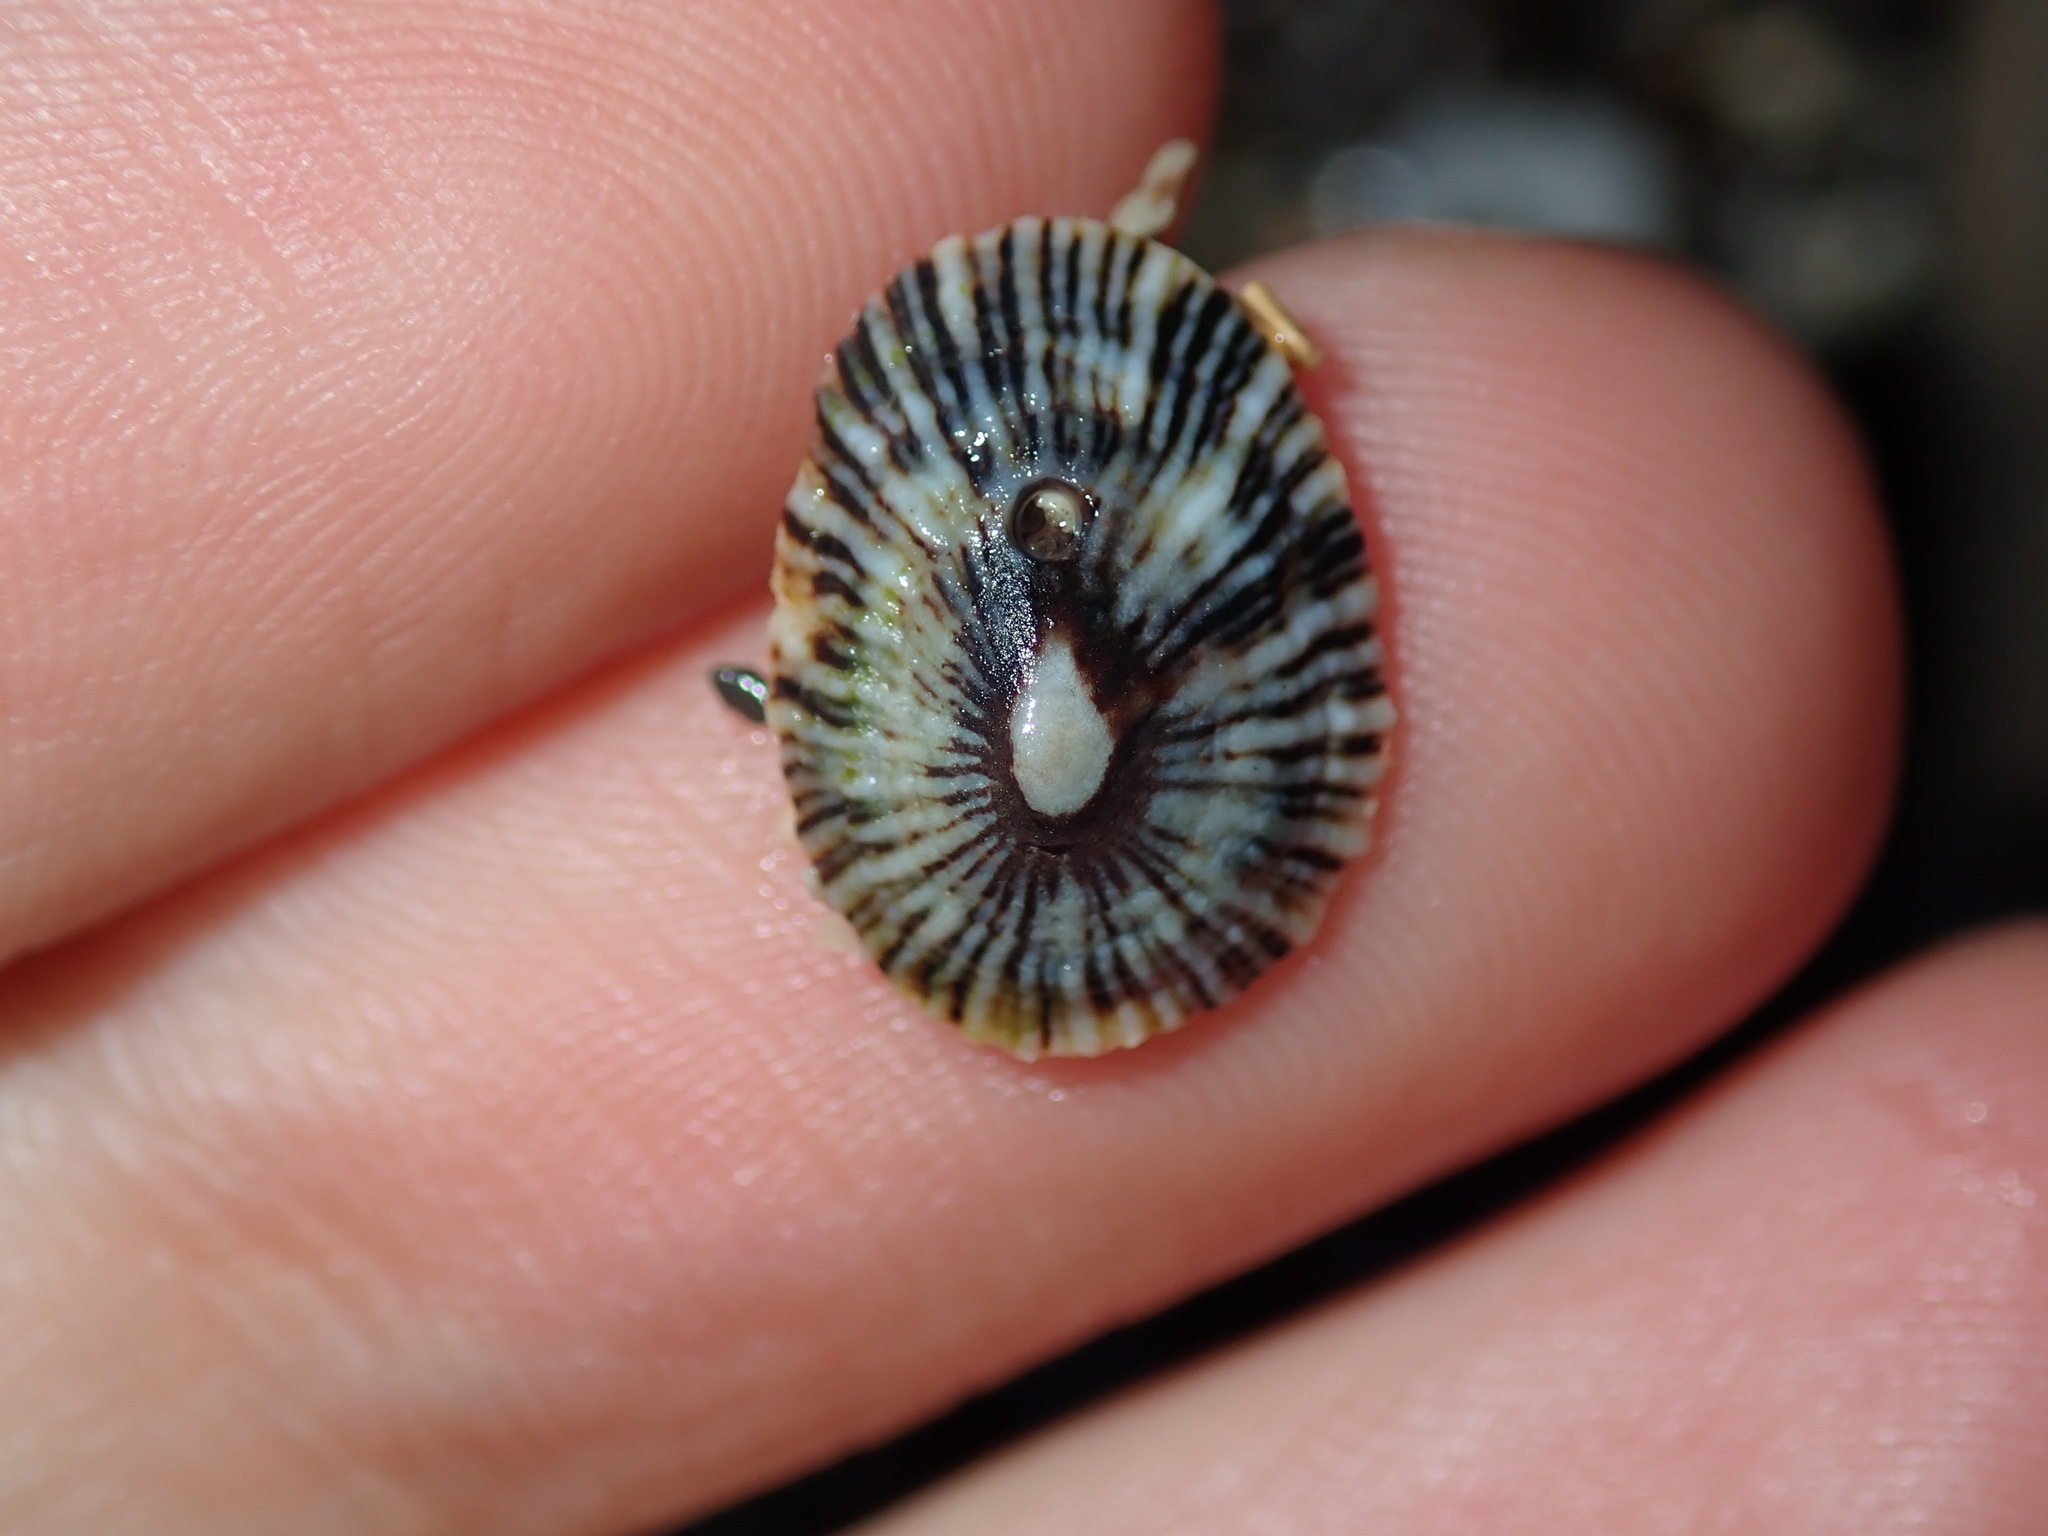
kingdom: Animalia
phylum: Mollusca
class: Gastropoda
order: Siphonariida
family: Siphonariidae
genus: Siphonaria
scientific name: Siphonaria funiculata
